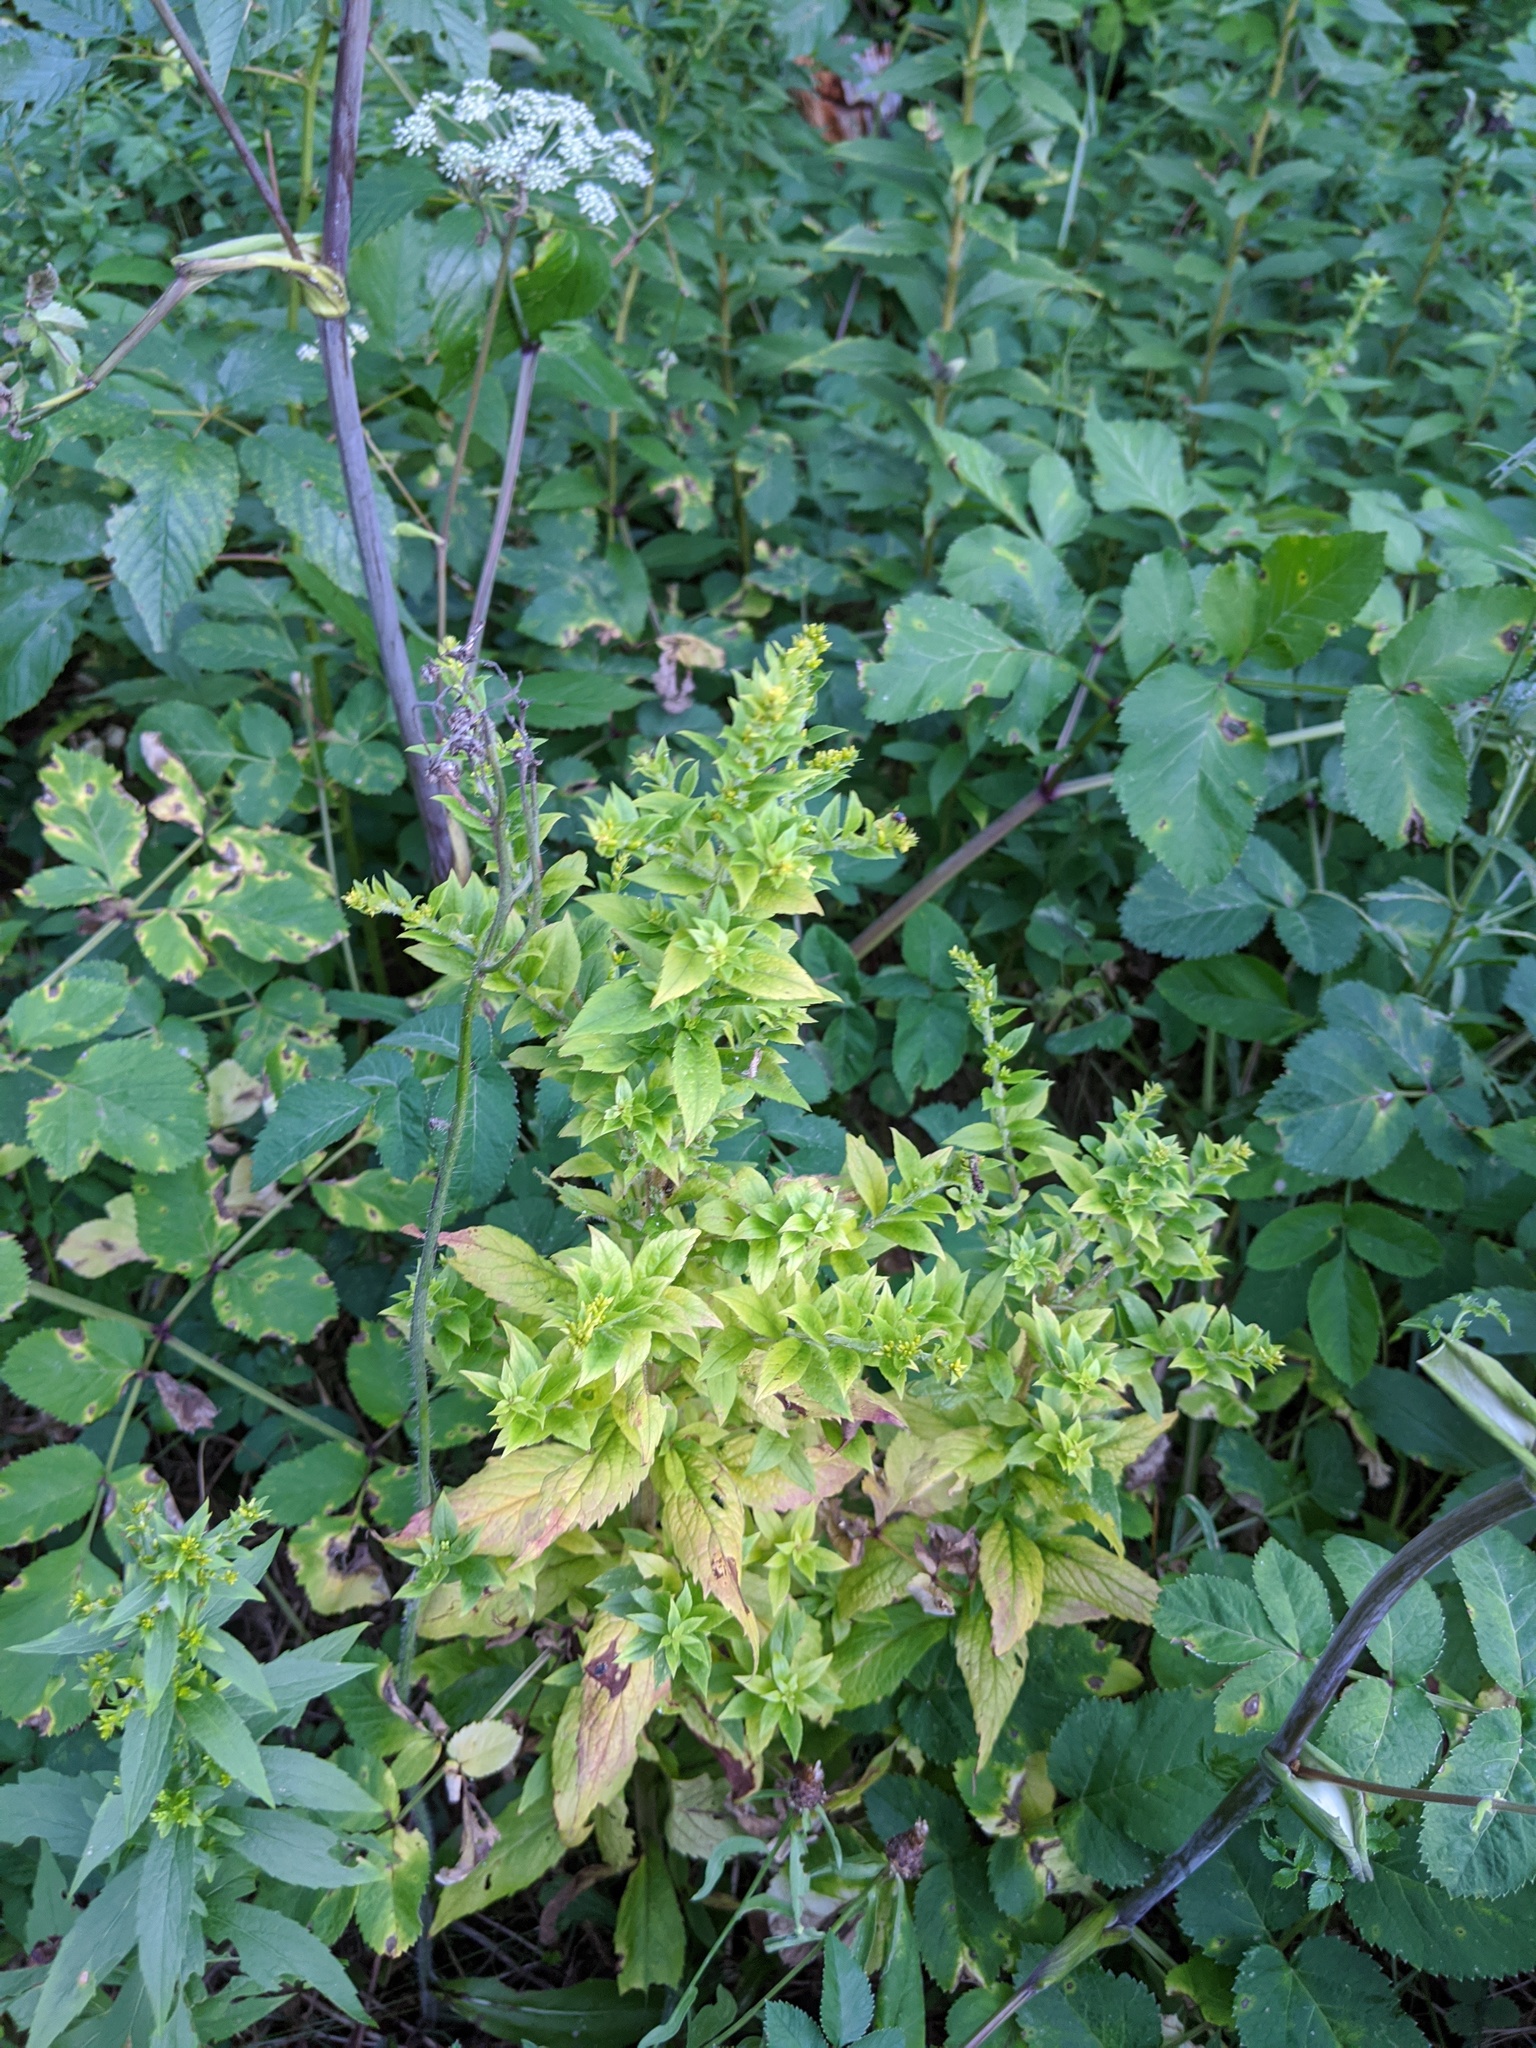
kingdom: Plantae
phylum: Tracheophyta
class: Magnoliopsida
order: Asterales
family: Asteraceae
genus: Solidago
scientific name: Solidago rugosa
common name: Rough-stemmed goldenrod
